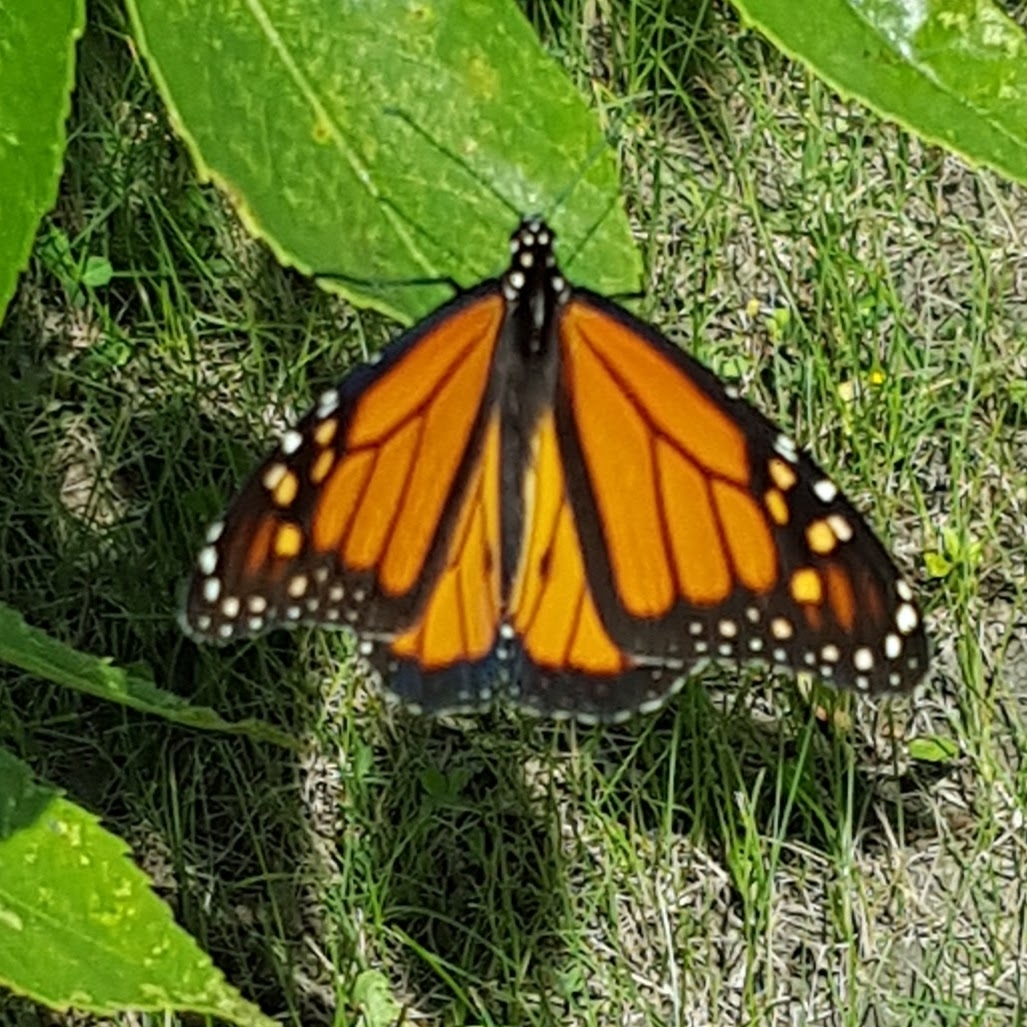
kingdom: Animalia
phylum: Arthropoda
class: Insecta
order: Lepidoptera
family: Nymphalidae
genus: Danaus
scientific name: Danaus plexippus
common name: Monarch
